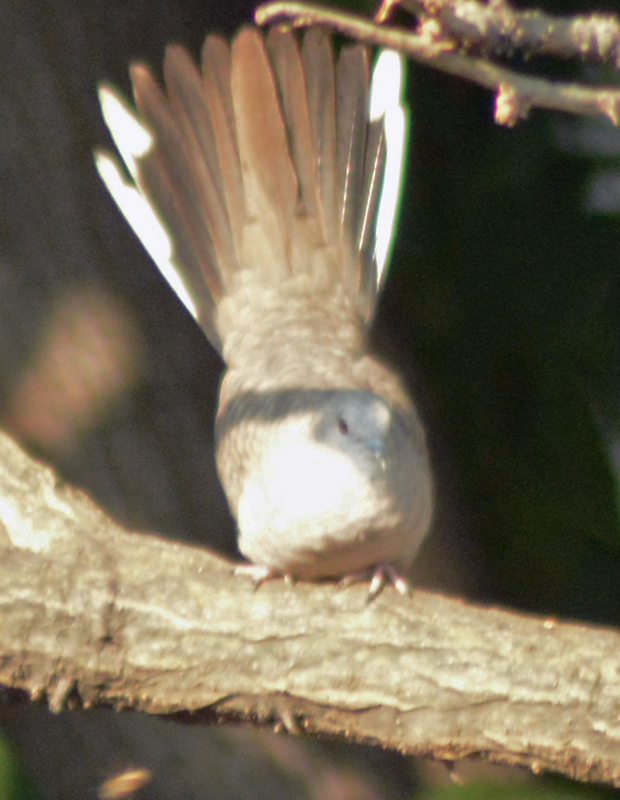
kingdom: Animalia
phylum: Chordata
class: Aves
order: Columbiformes
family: Columbidae
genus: Columbina
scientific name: Columbina inca
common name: Inca dove
